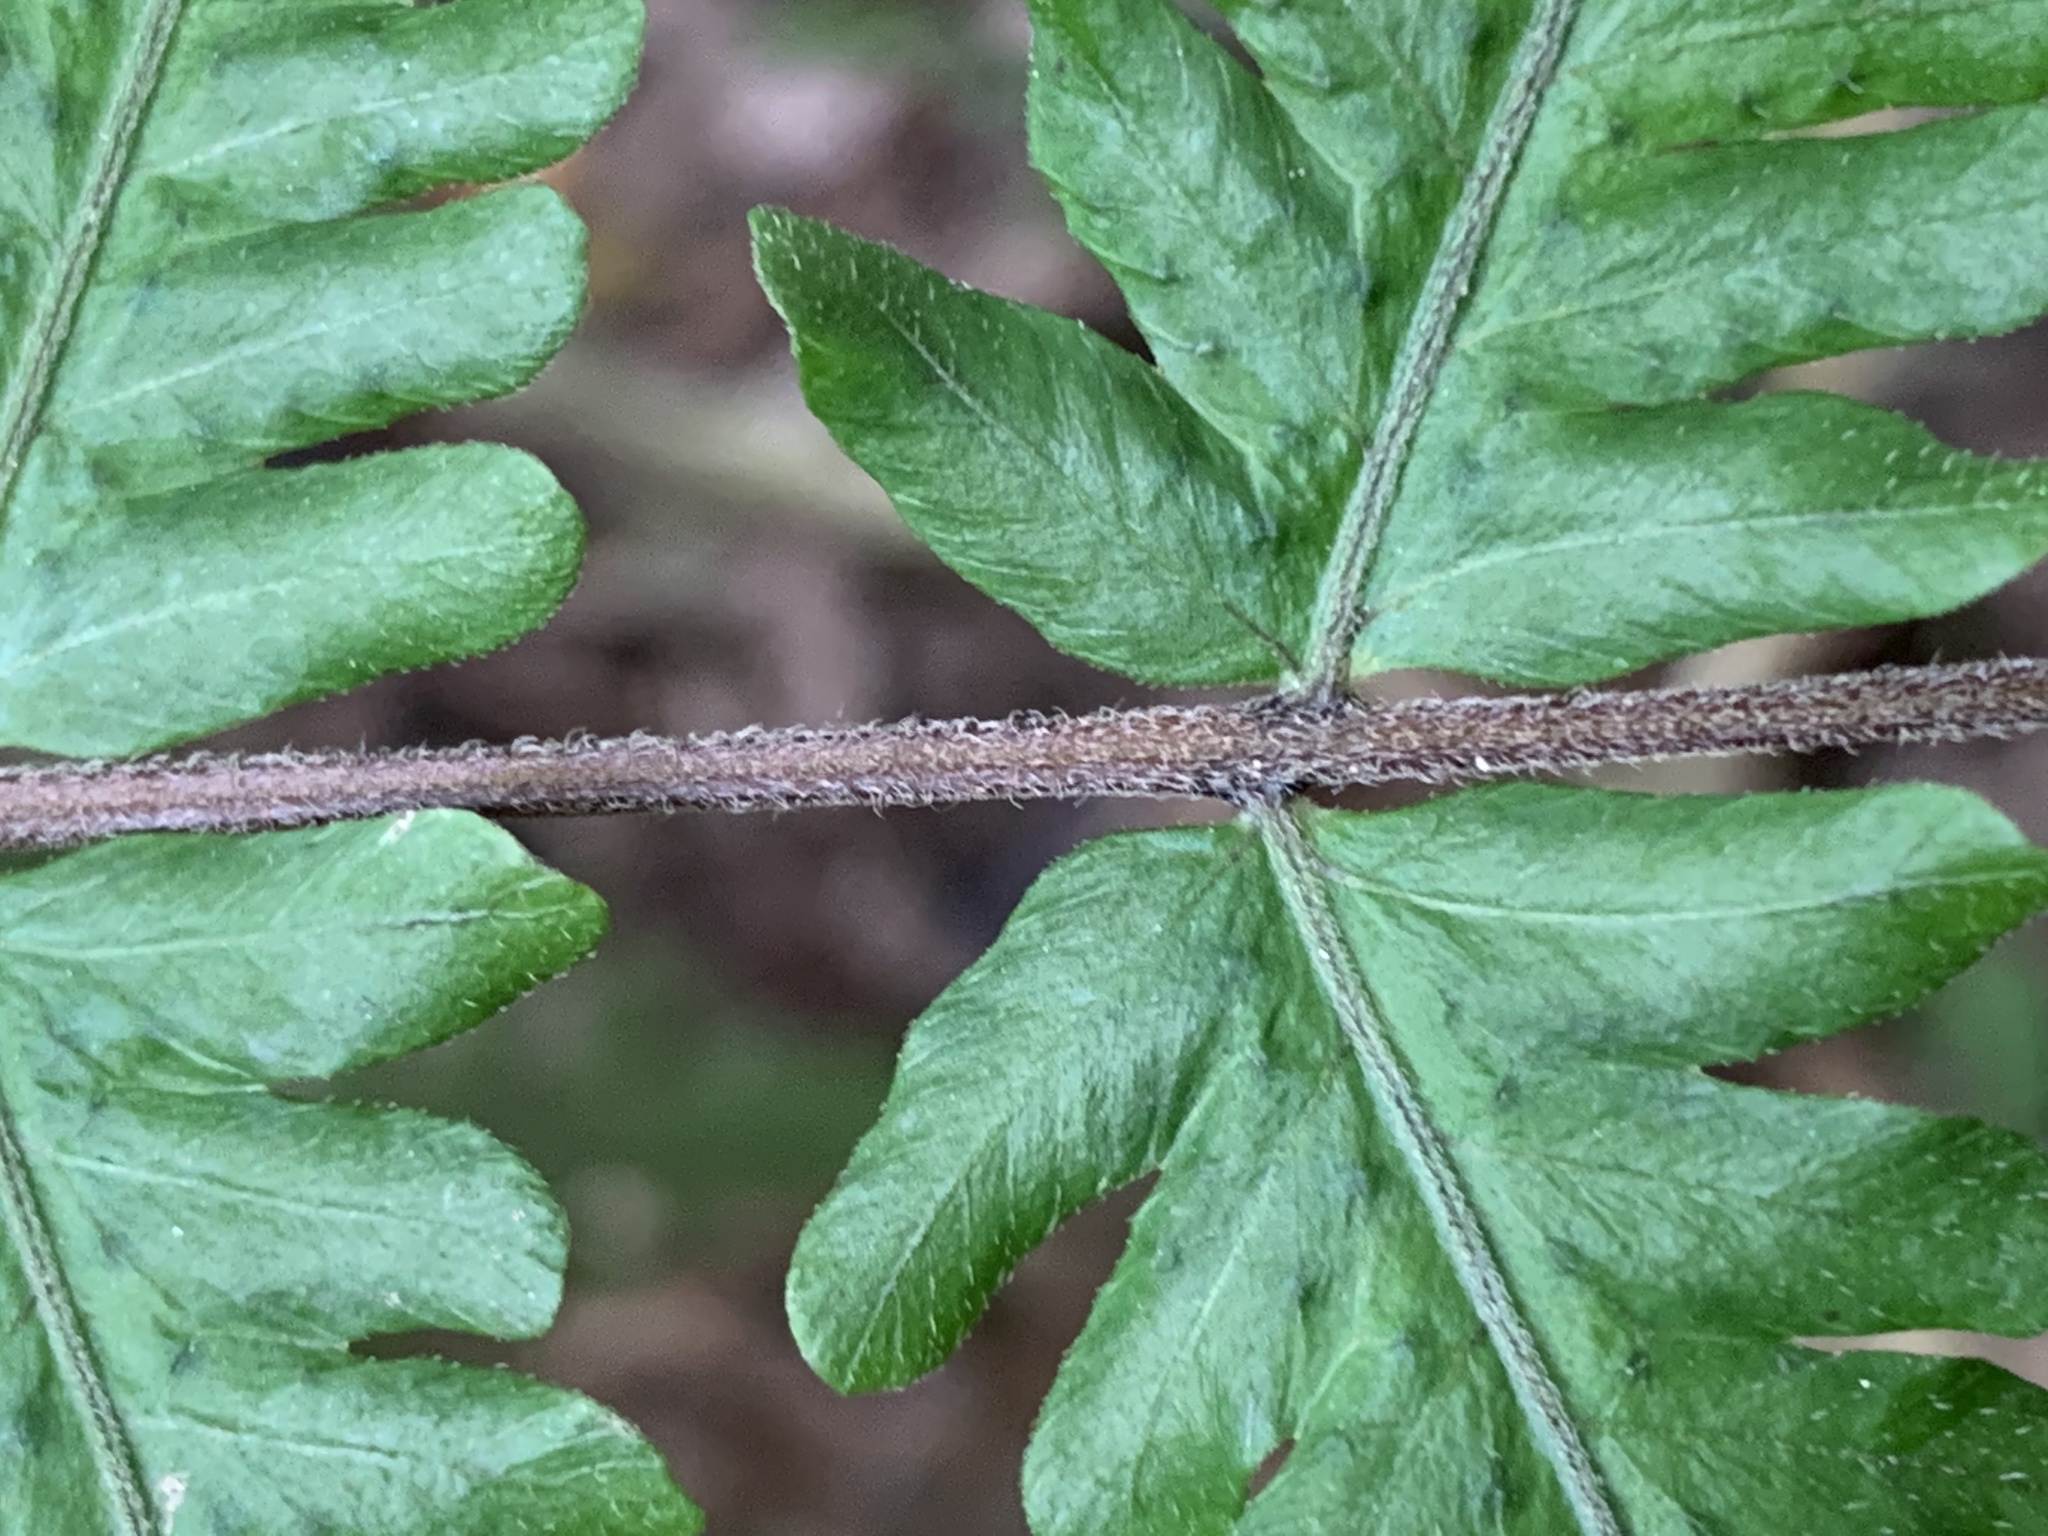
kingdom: Plantae
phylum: Tracheophyta
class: Polypodiopsida
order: Polypodiales
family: Thelypteridaceae
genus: Christella
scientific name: Christella dentata
